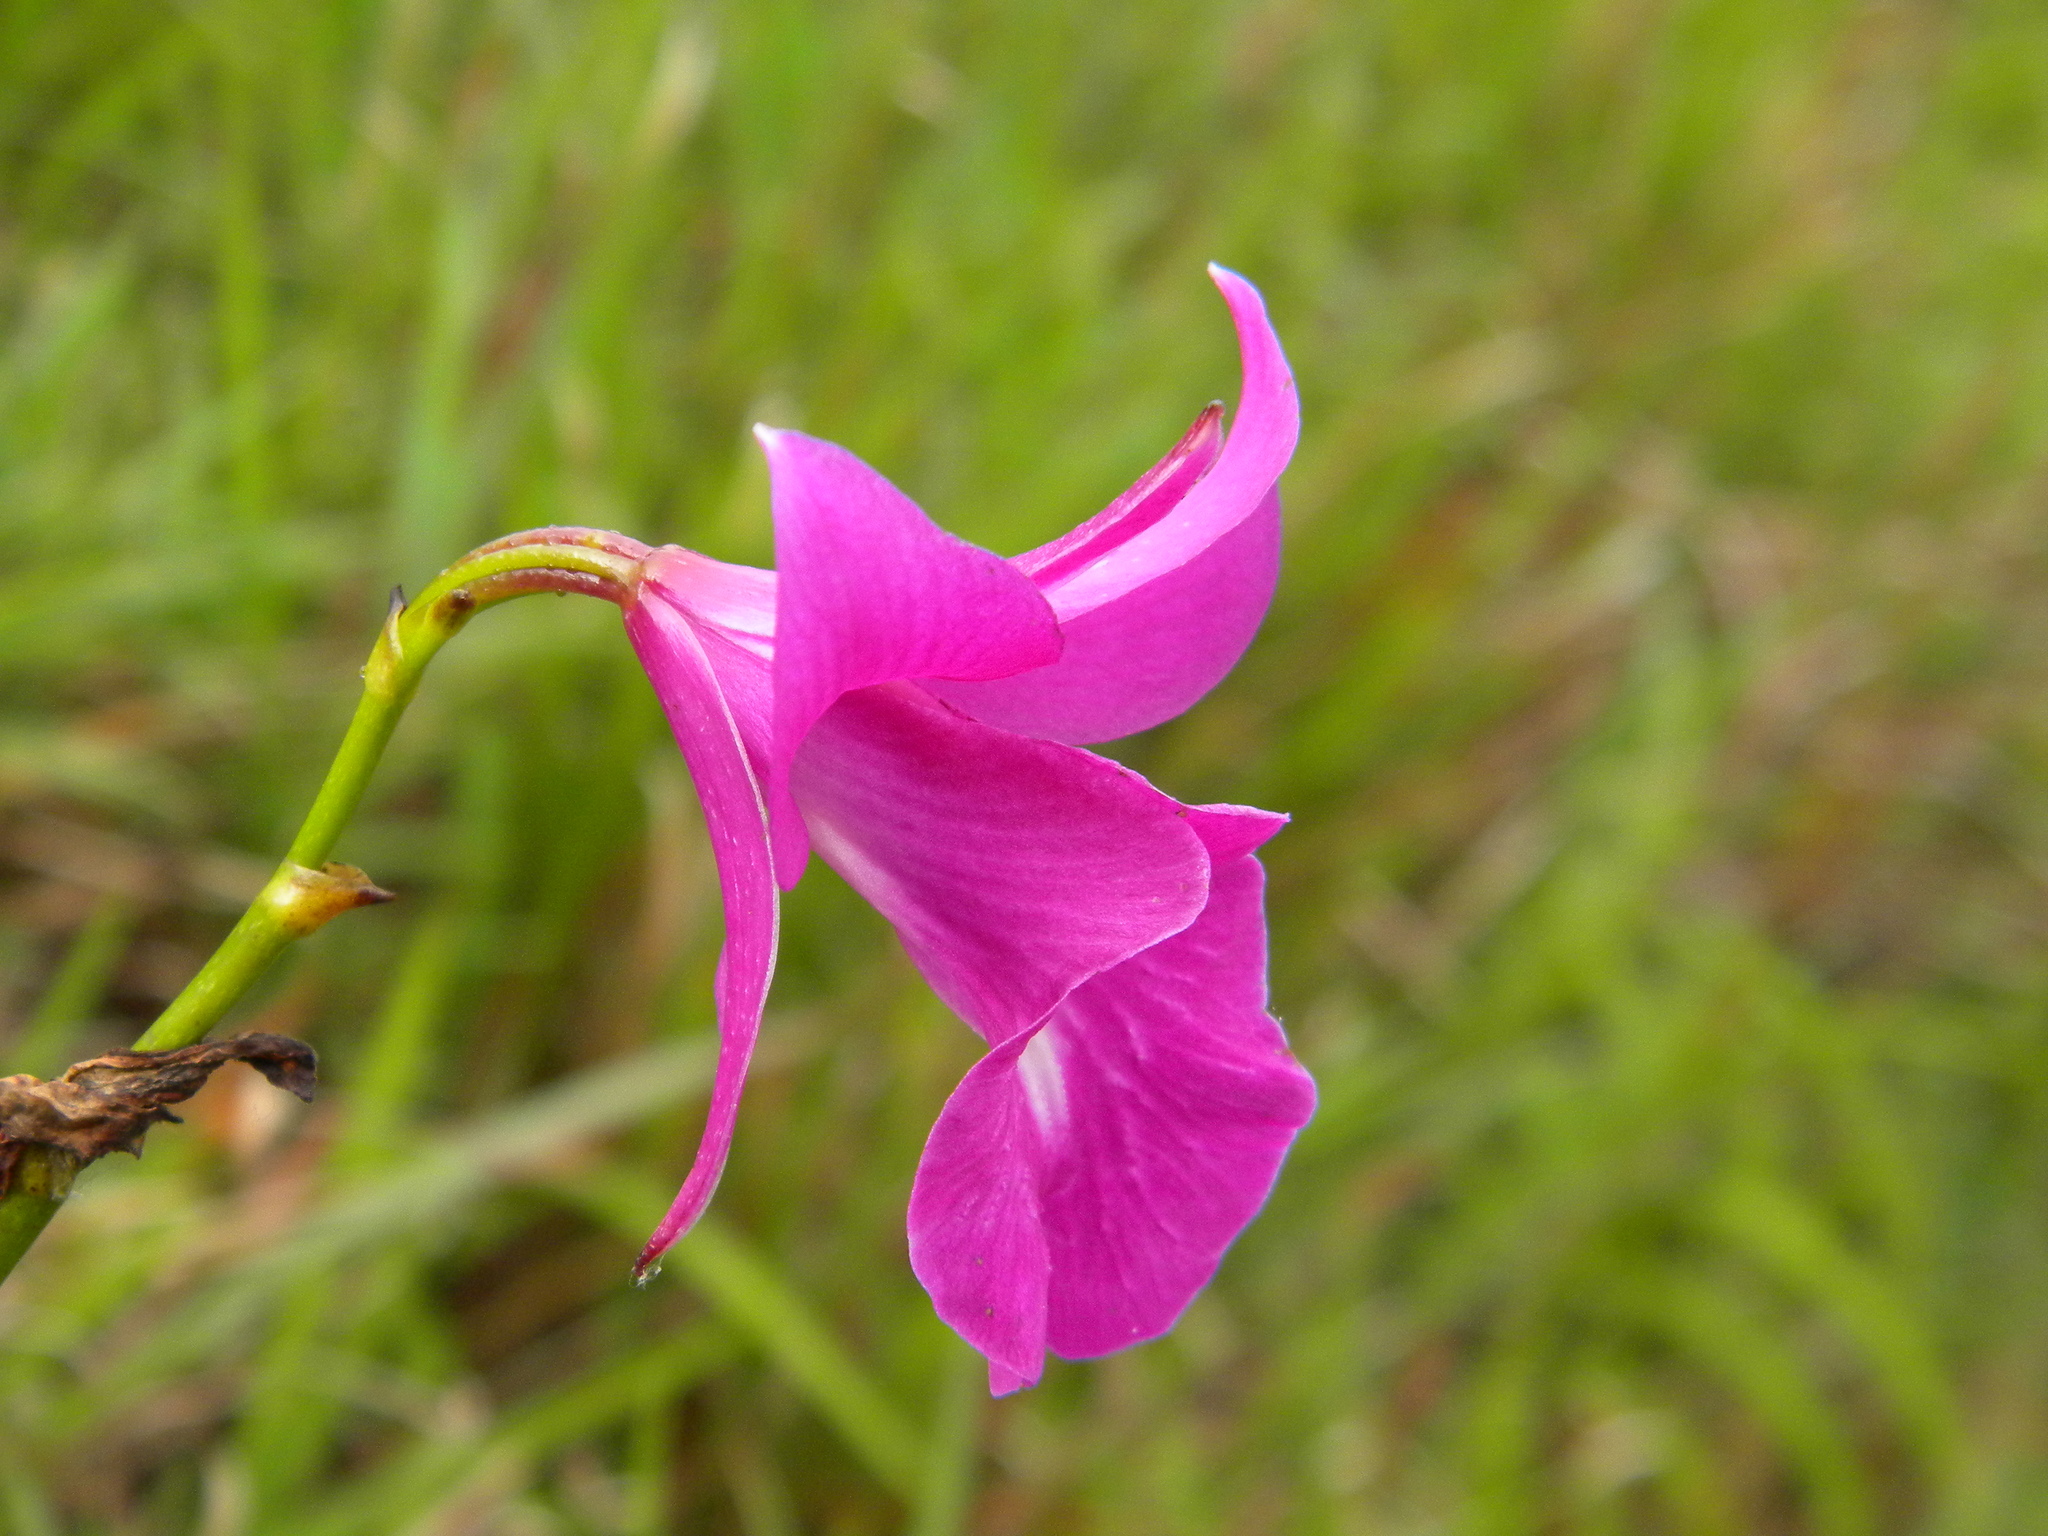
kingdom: Plantae
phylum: Tracheophyta
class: Liliopsida
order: Asparagales
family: Orchidaceae
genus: Arundina
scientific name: Arundina graminifolia
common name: Bamboo orchid
